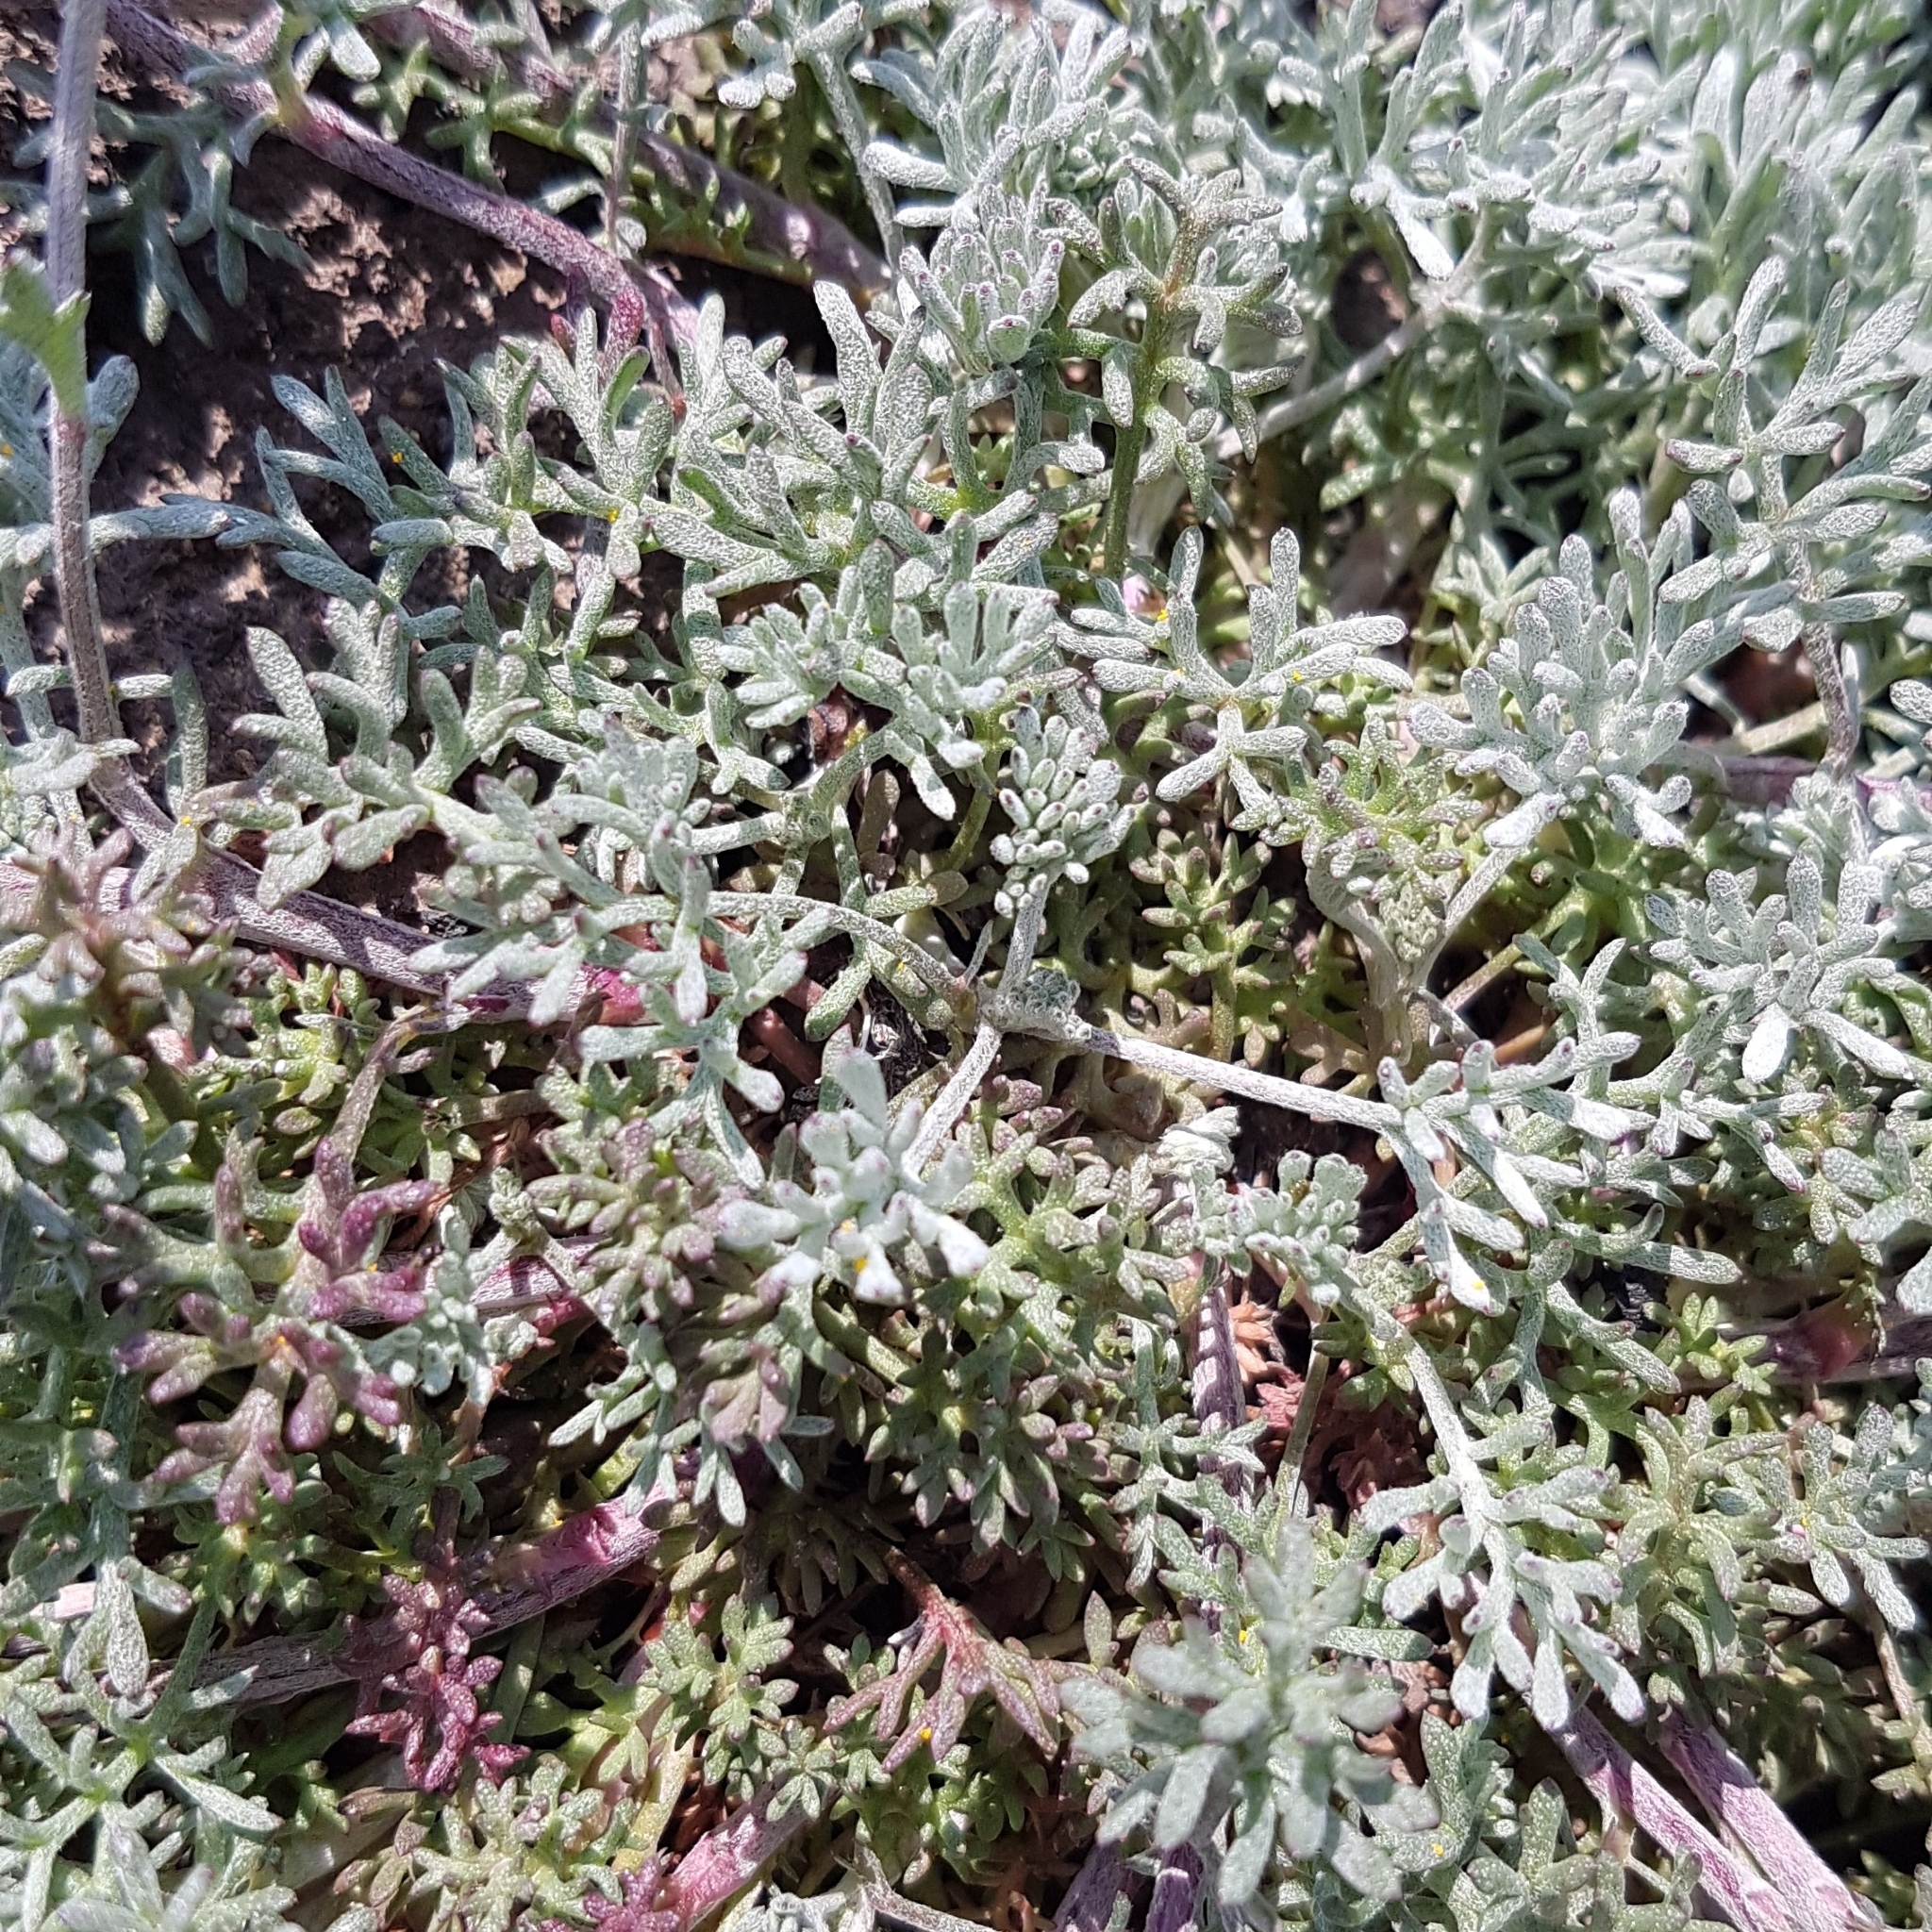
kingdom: Plantae
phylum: Tracheophyta
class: Magnoliopsida
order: Asterales
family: Asteraceae
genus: Anthemis
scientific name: Anthemis aetnensis
